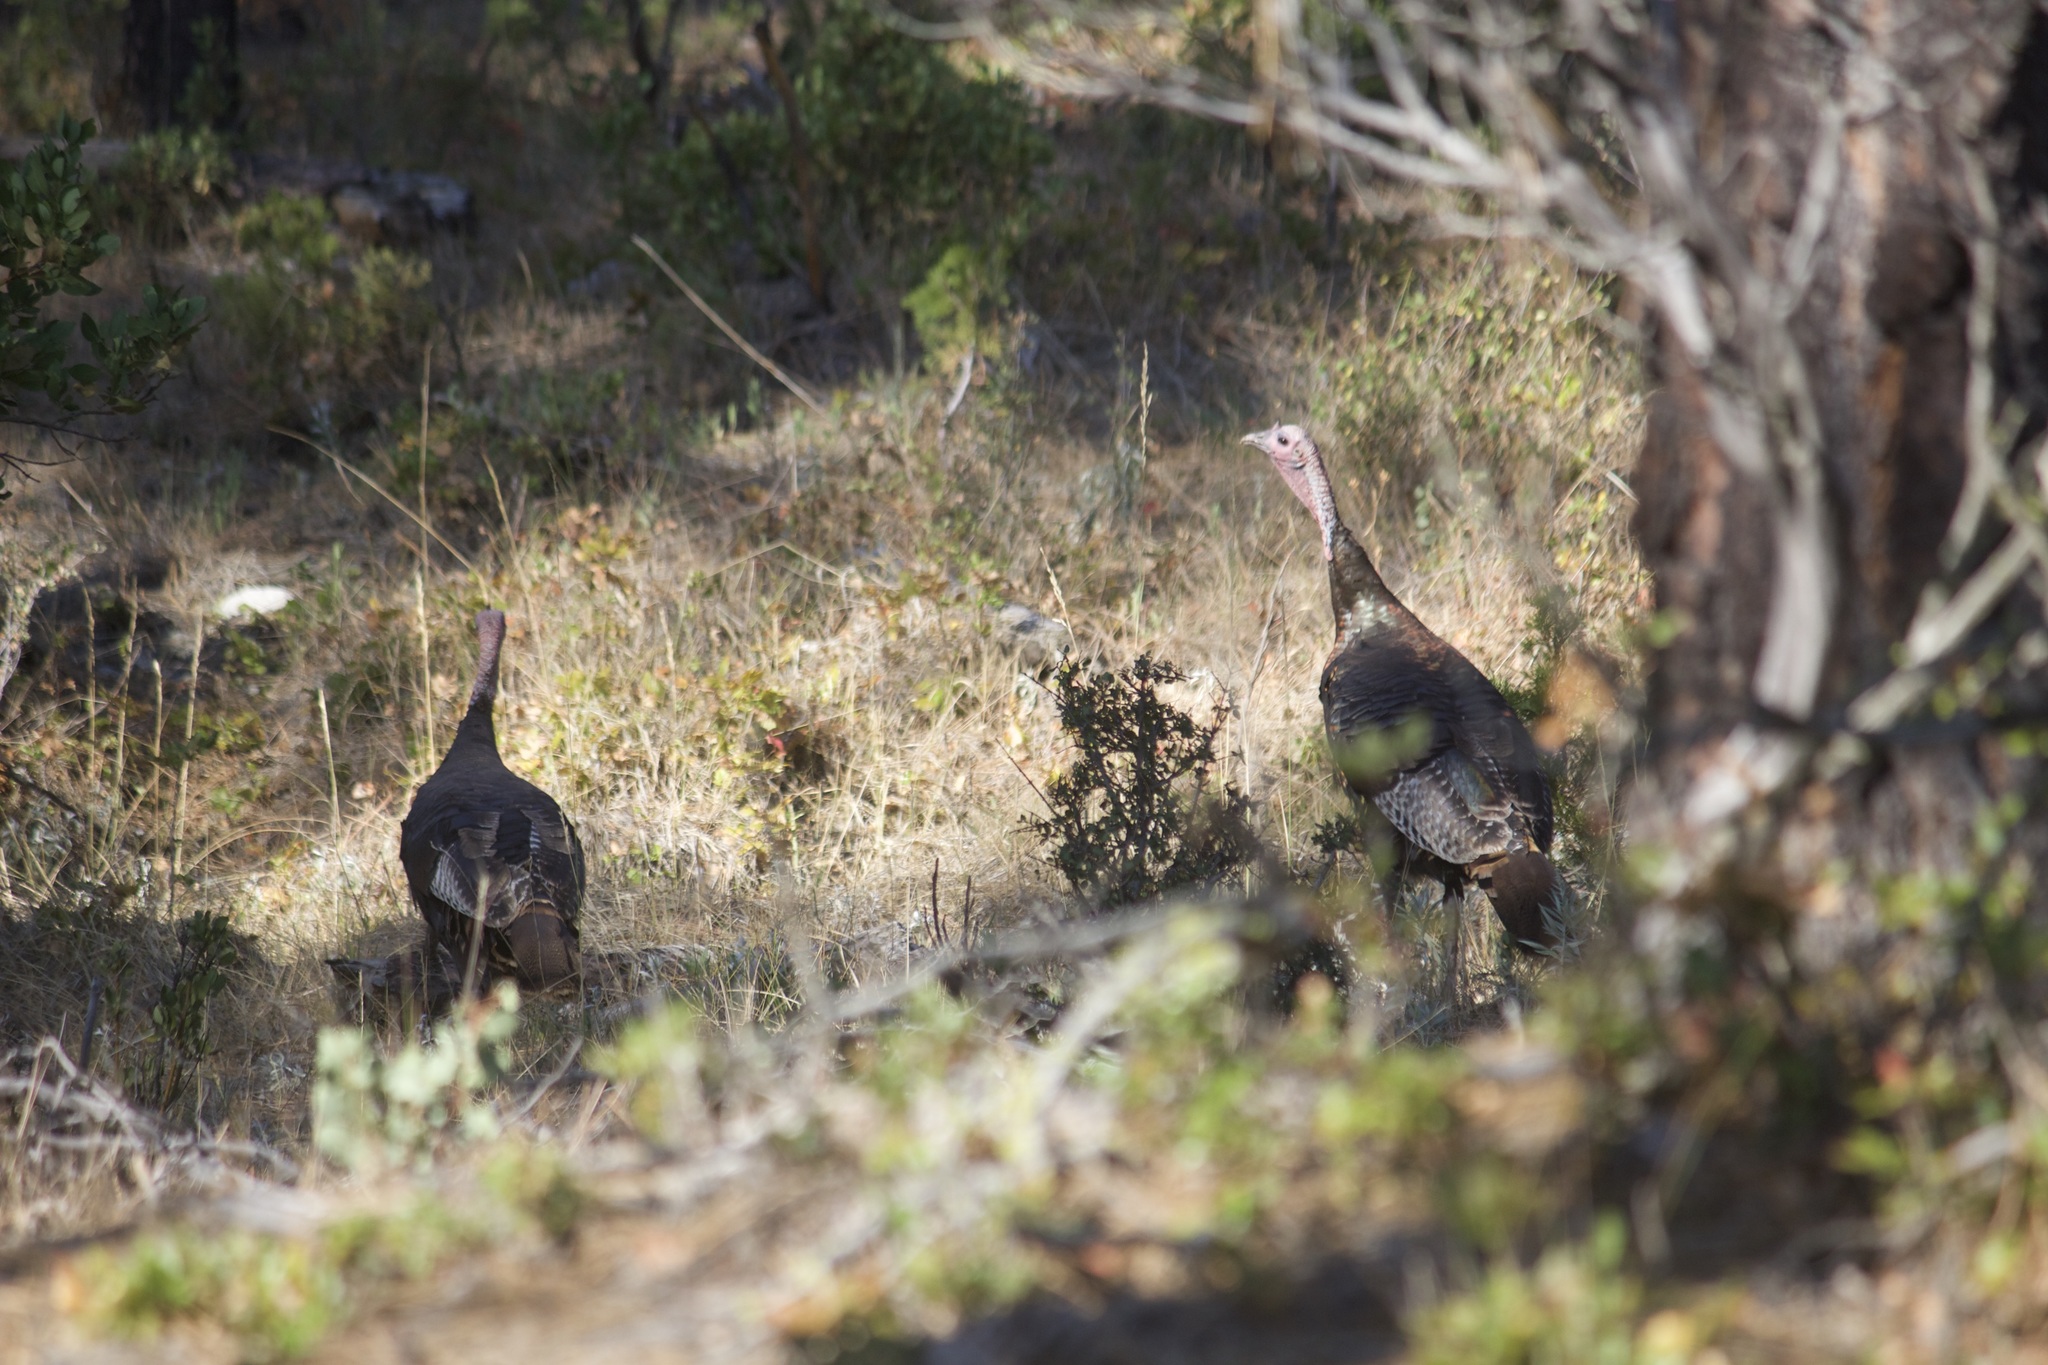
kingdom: Animalia
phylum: Chordata
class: Aves
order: Galliformes
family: Phasianidae
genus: Meleagris
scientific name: Meleagris gallopavo
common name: Wild turkey
